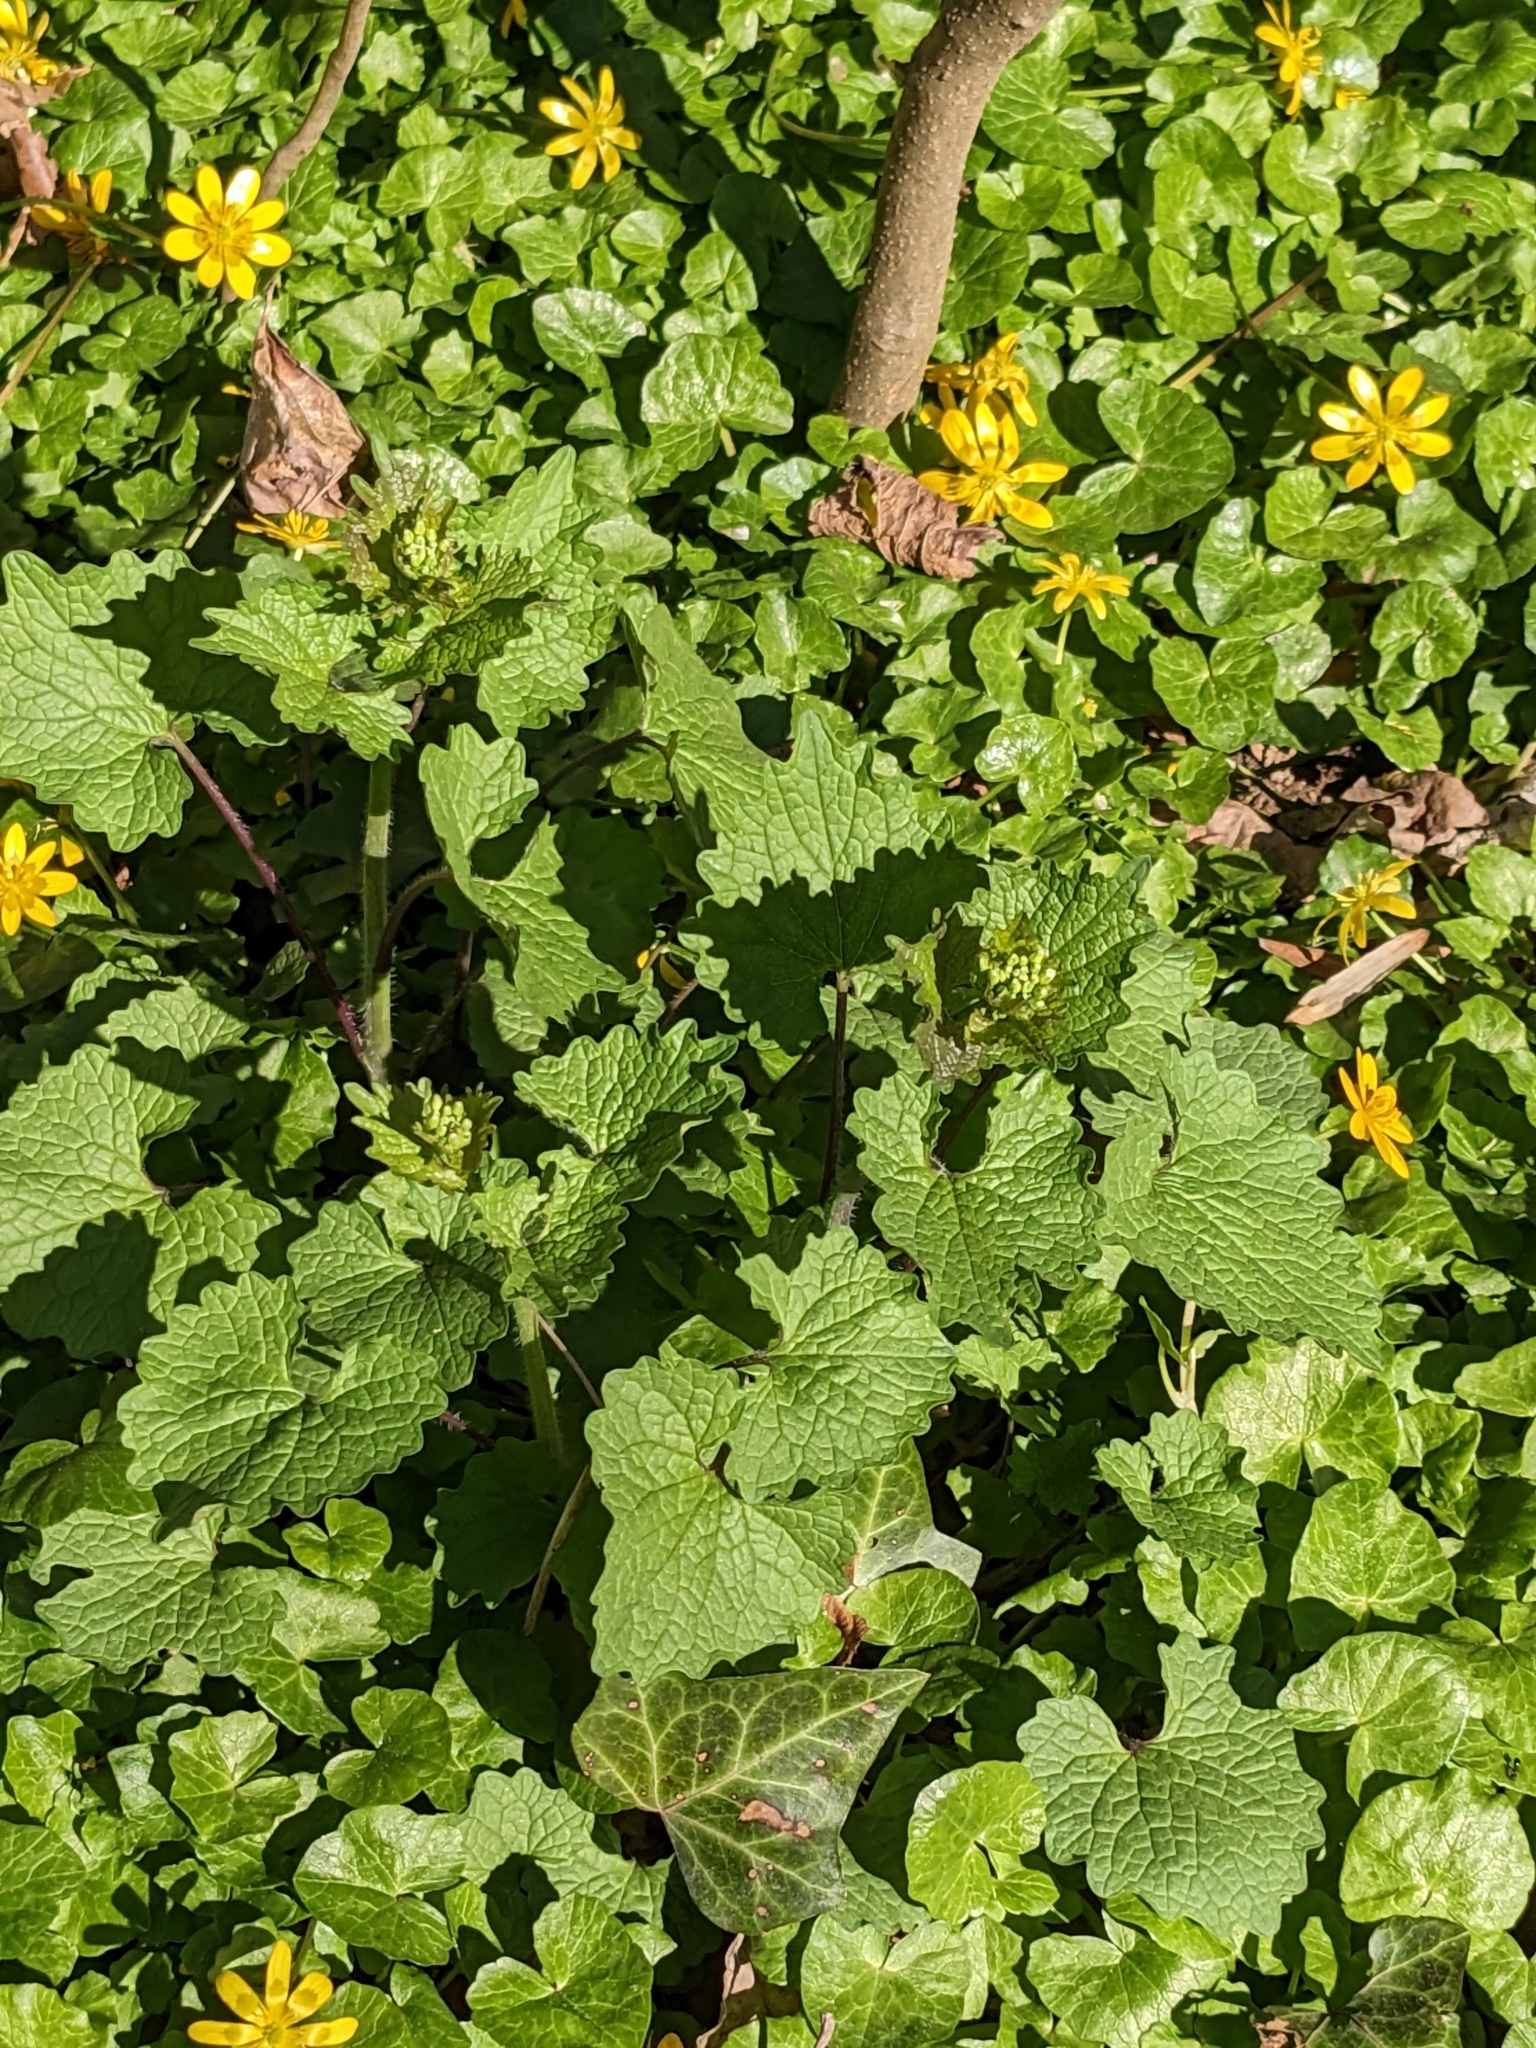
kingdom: Plantae
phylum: Tracheophyta
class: Magnoliopsida
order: Brassicales
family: Brassicaceae
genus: Alliaria
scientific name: Alliaria petiolata
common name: Garlic mustard
